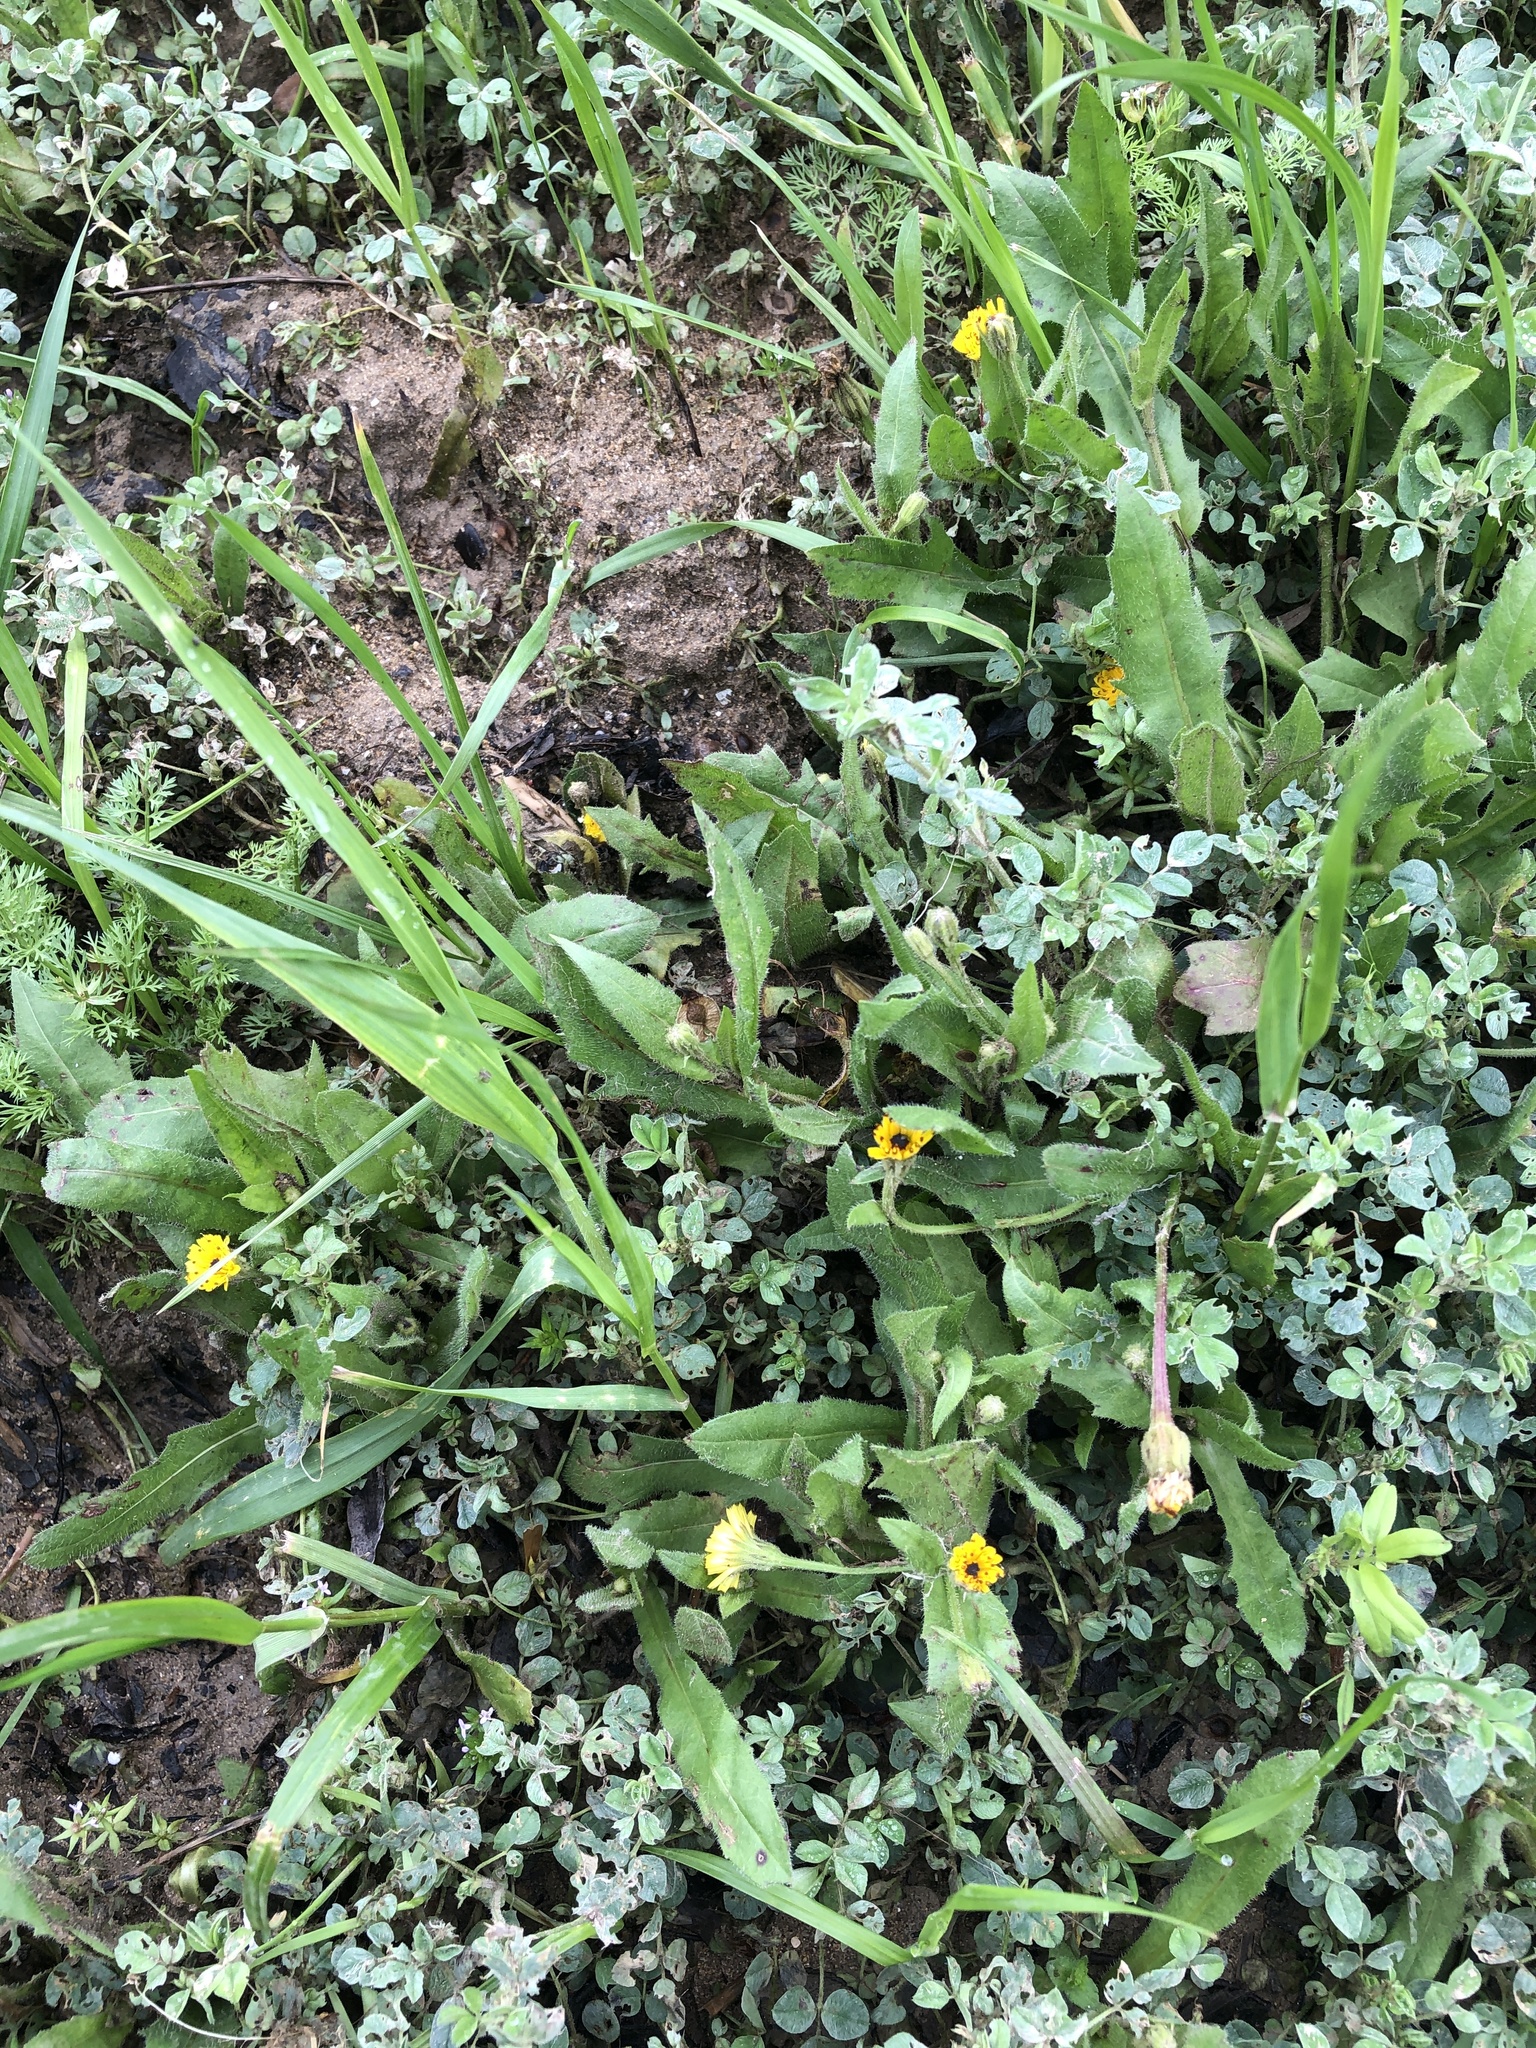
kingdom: Plantae
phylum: Tracheophyta
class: Magnoliopsida
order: Asterales
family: Asteraceae
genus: Hedypnois
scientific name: Hedypnois rhagadioloides
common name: Cretan weed
